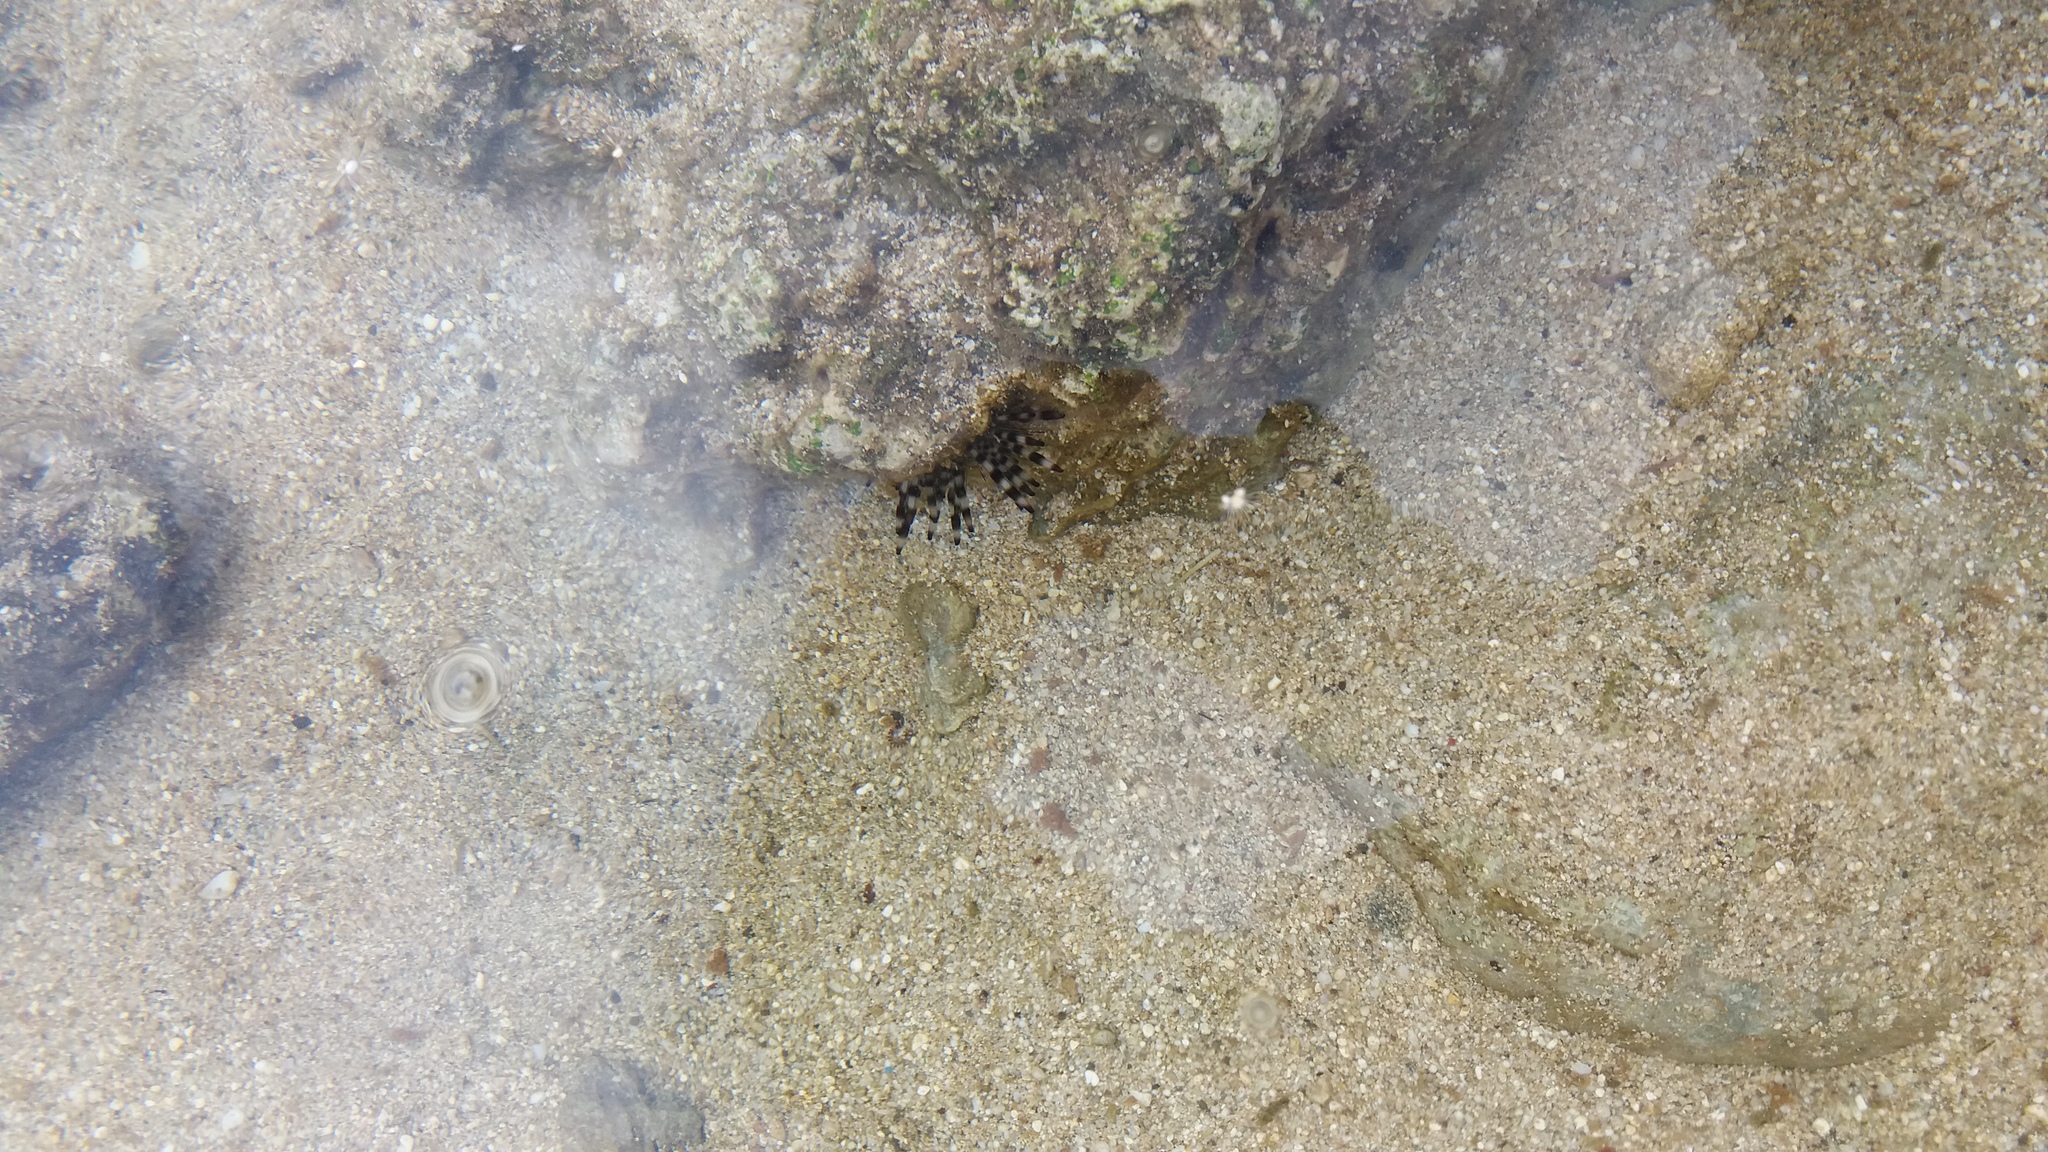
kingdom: Animalia
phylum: Echinodermata
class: Echinoidea
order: Diadematoida
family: Diadematidae
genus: Echinothrix
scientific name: Echinothrix calamaris
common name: Banded sea urchin
